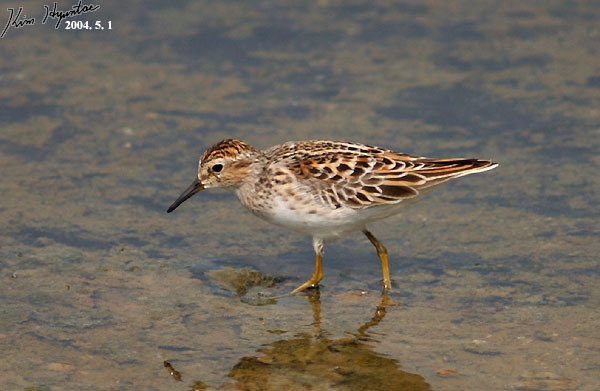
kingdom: Animalia
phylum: Chordata
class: Aves
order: Charadriiformes
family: Scolopacidae
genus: Calidris
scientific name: Calidris subminuta
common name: Long-toed stint
